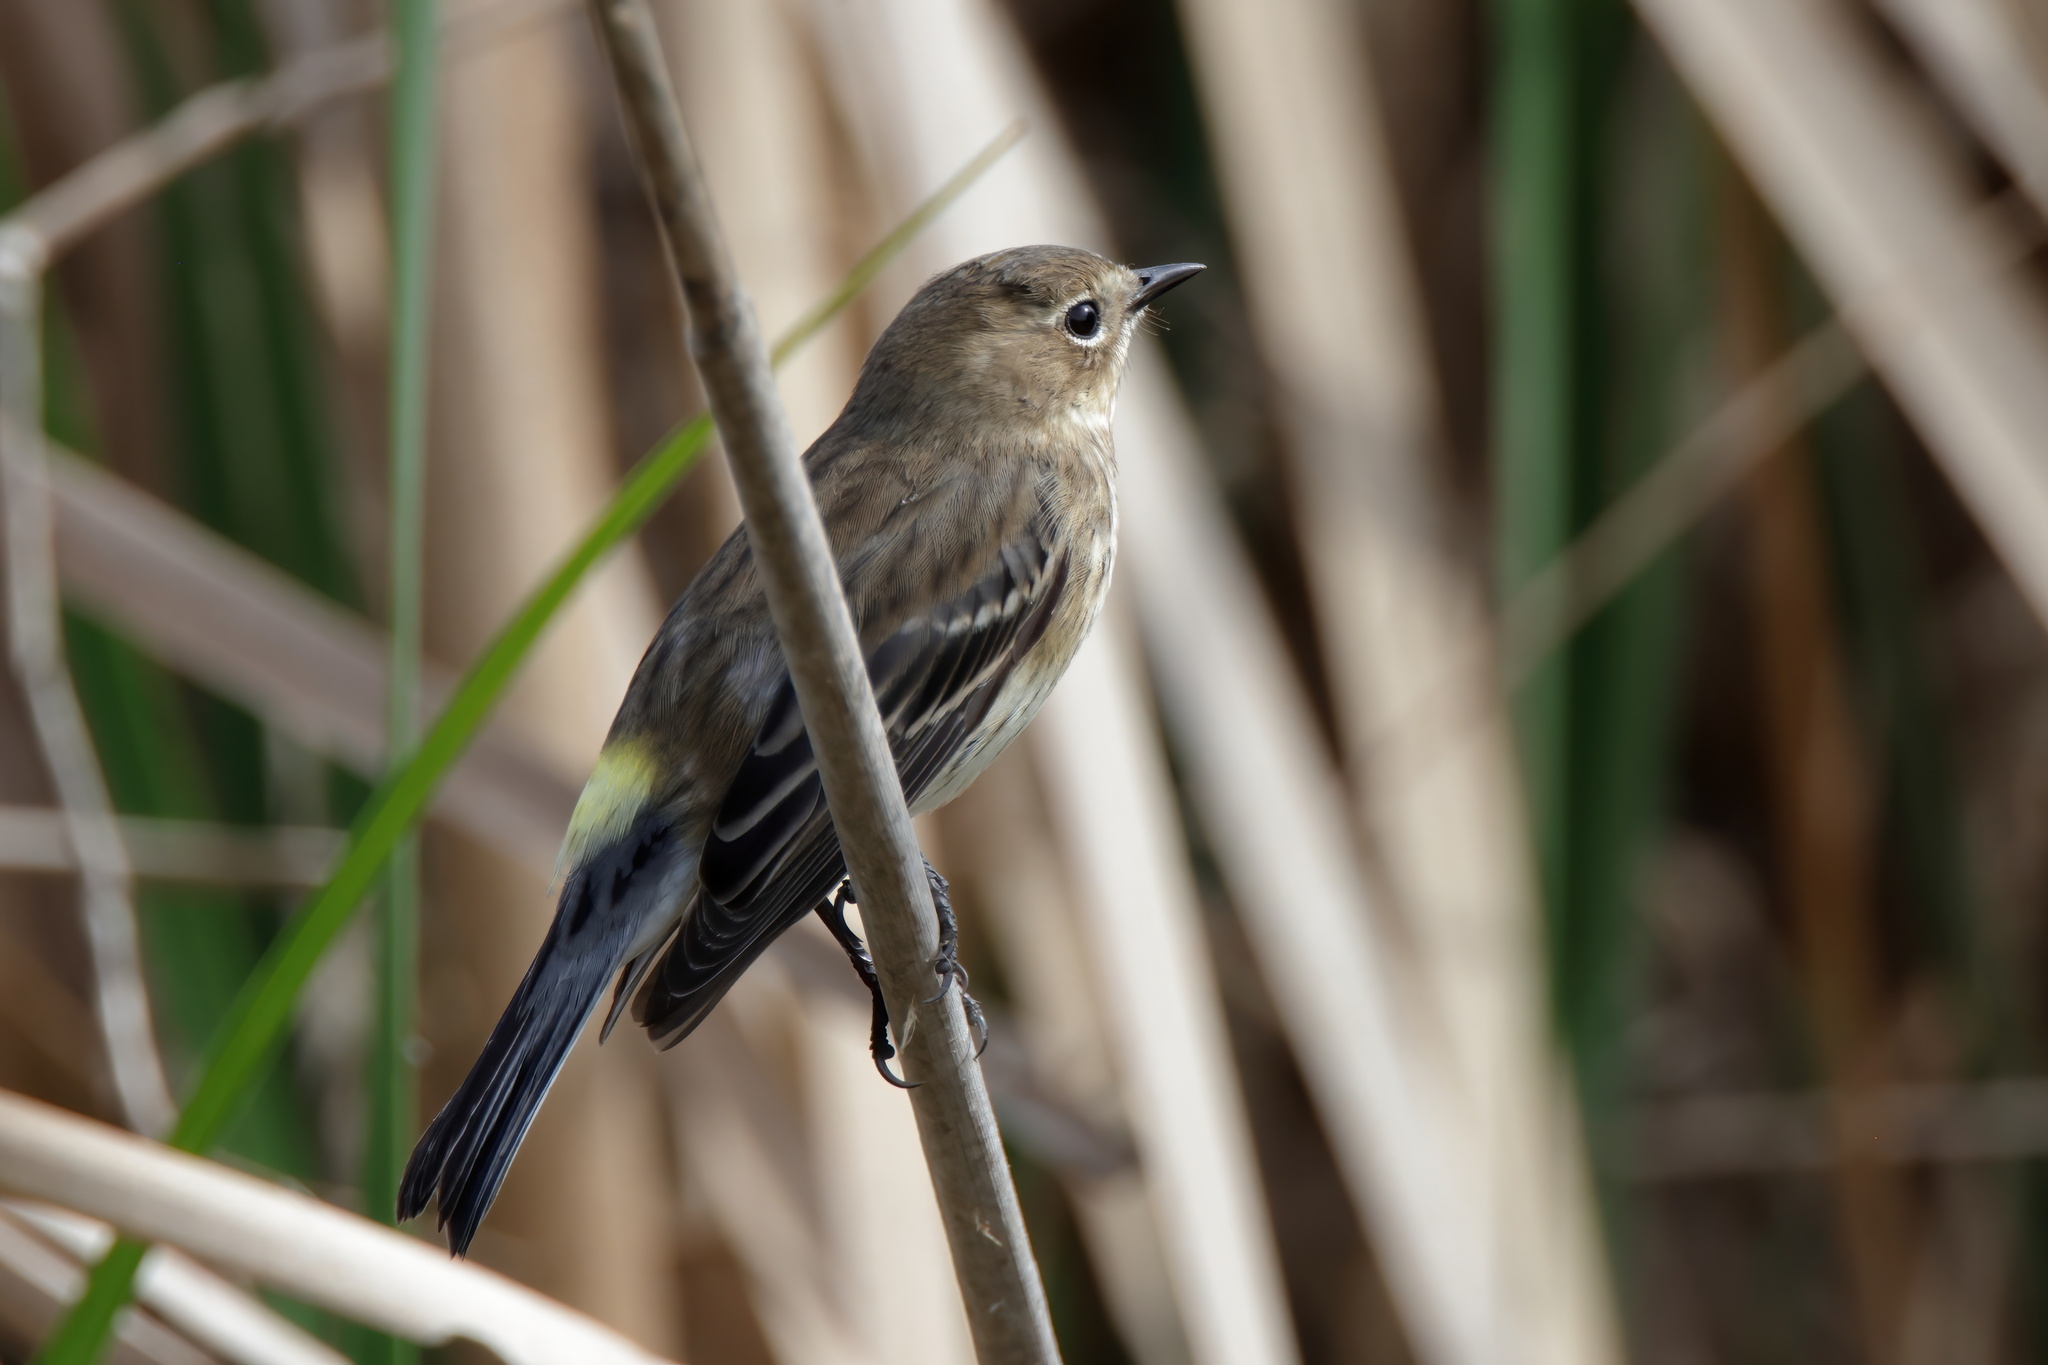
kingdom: Animalia
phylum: Chordata
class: Aves
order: Passeriformes
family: Parulidae
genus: Setophaga
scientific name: Setophaga coronata
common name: Myrtle warbler
